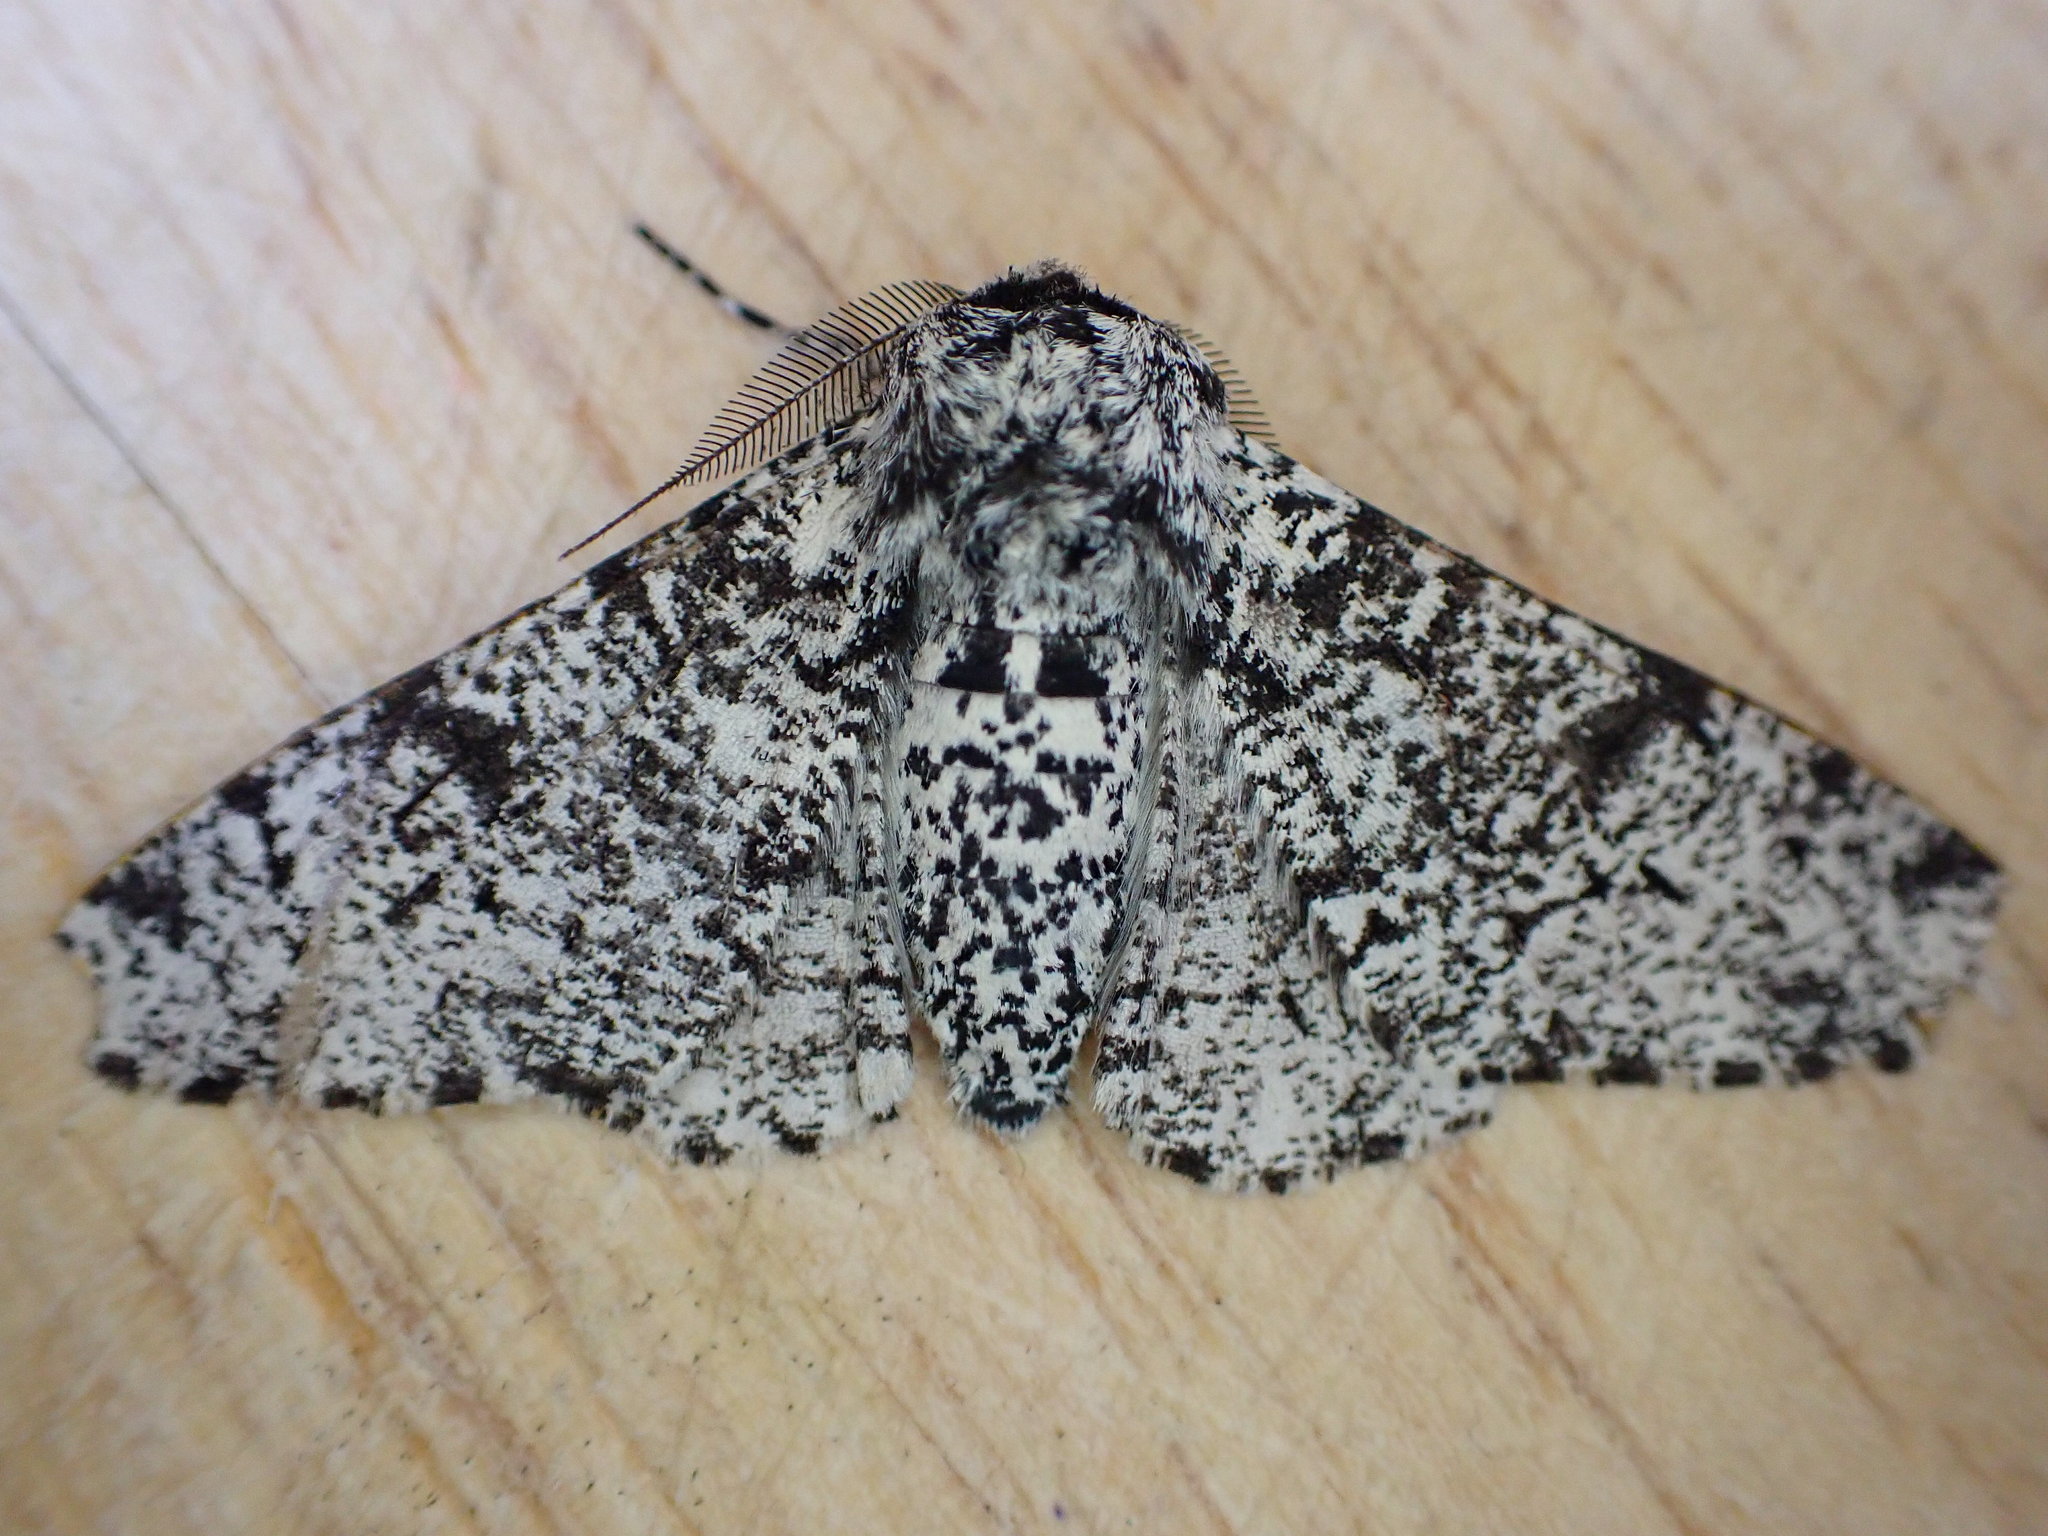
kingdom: Animalia
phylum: Arthropoda
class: Insecta
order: Lepidoptera
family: Geometridae
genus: Biston
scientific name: Biston betularia
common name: Peppered moth
